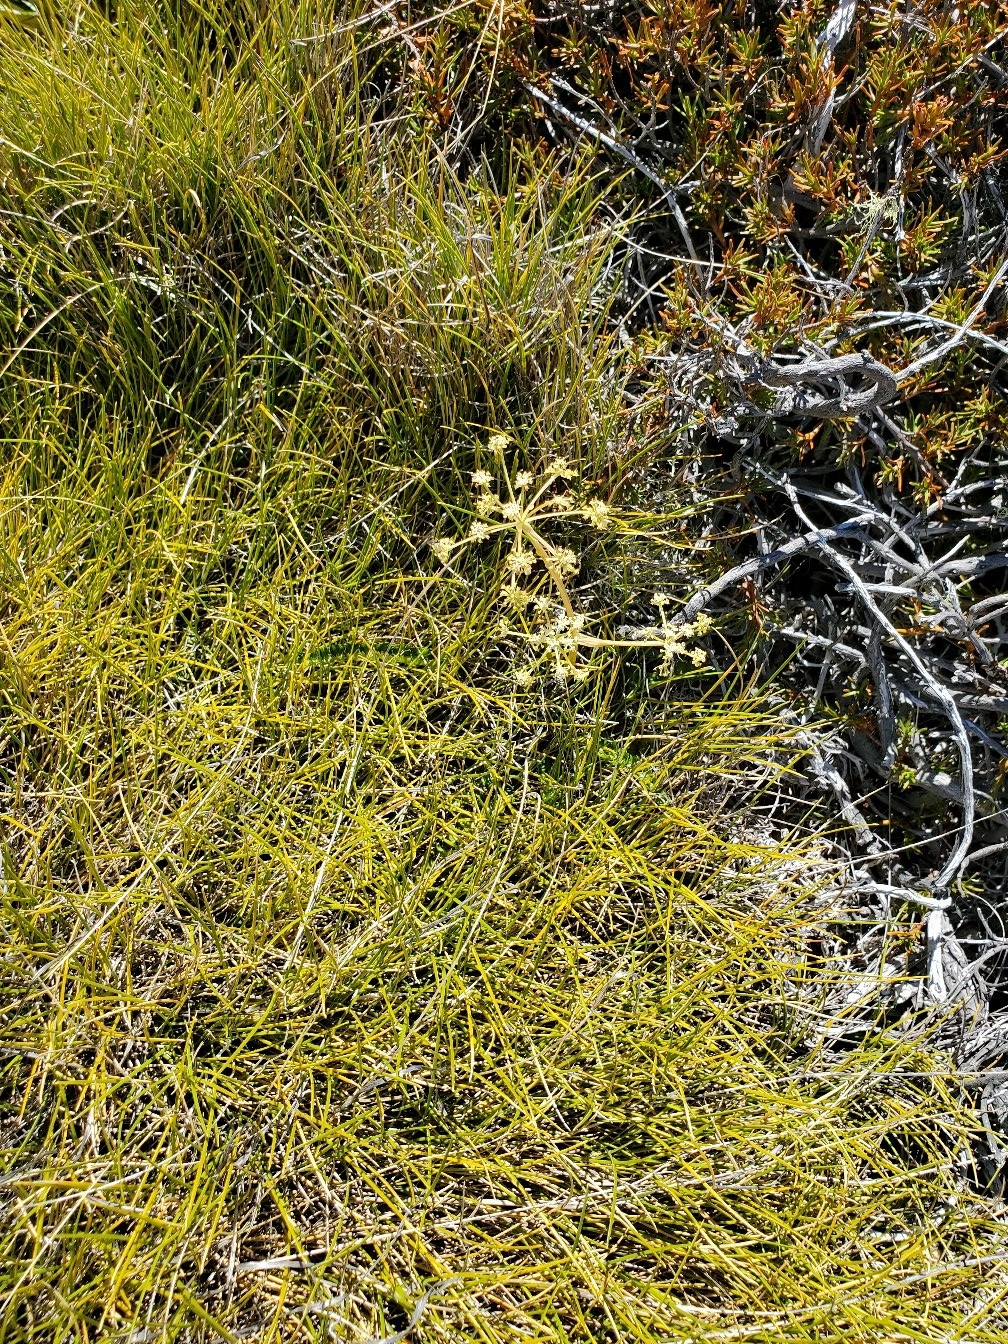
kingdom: Plantae
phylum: Tracheophyta
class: Magnoliopsida
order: Apiales
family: Apiaceae
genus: Anisotome
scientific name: Anisotome aromatica
